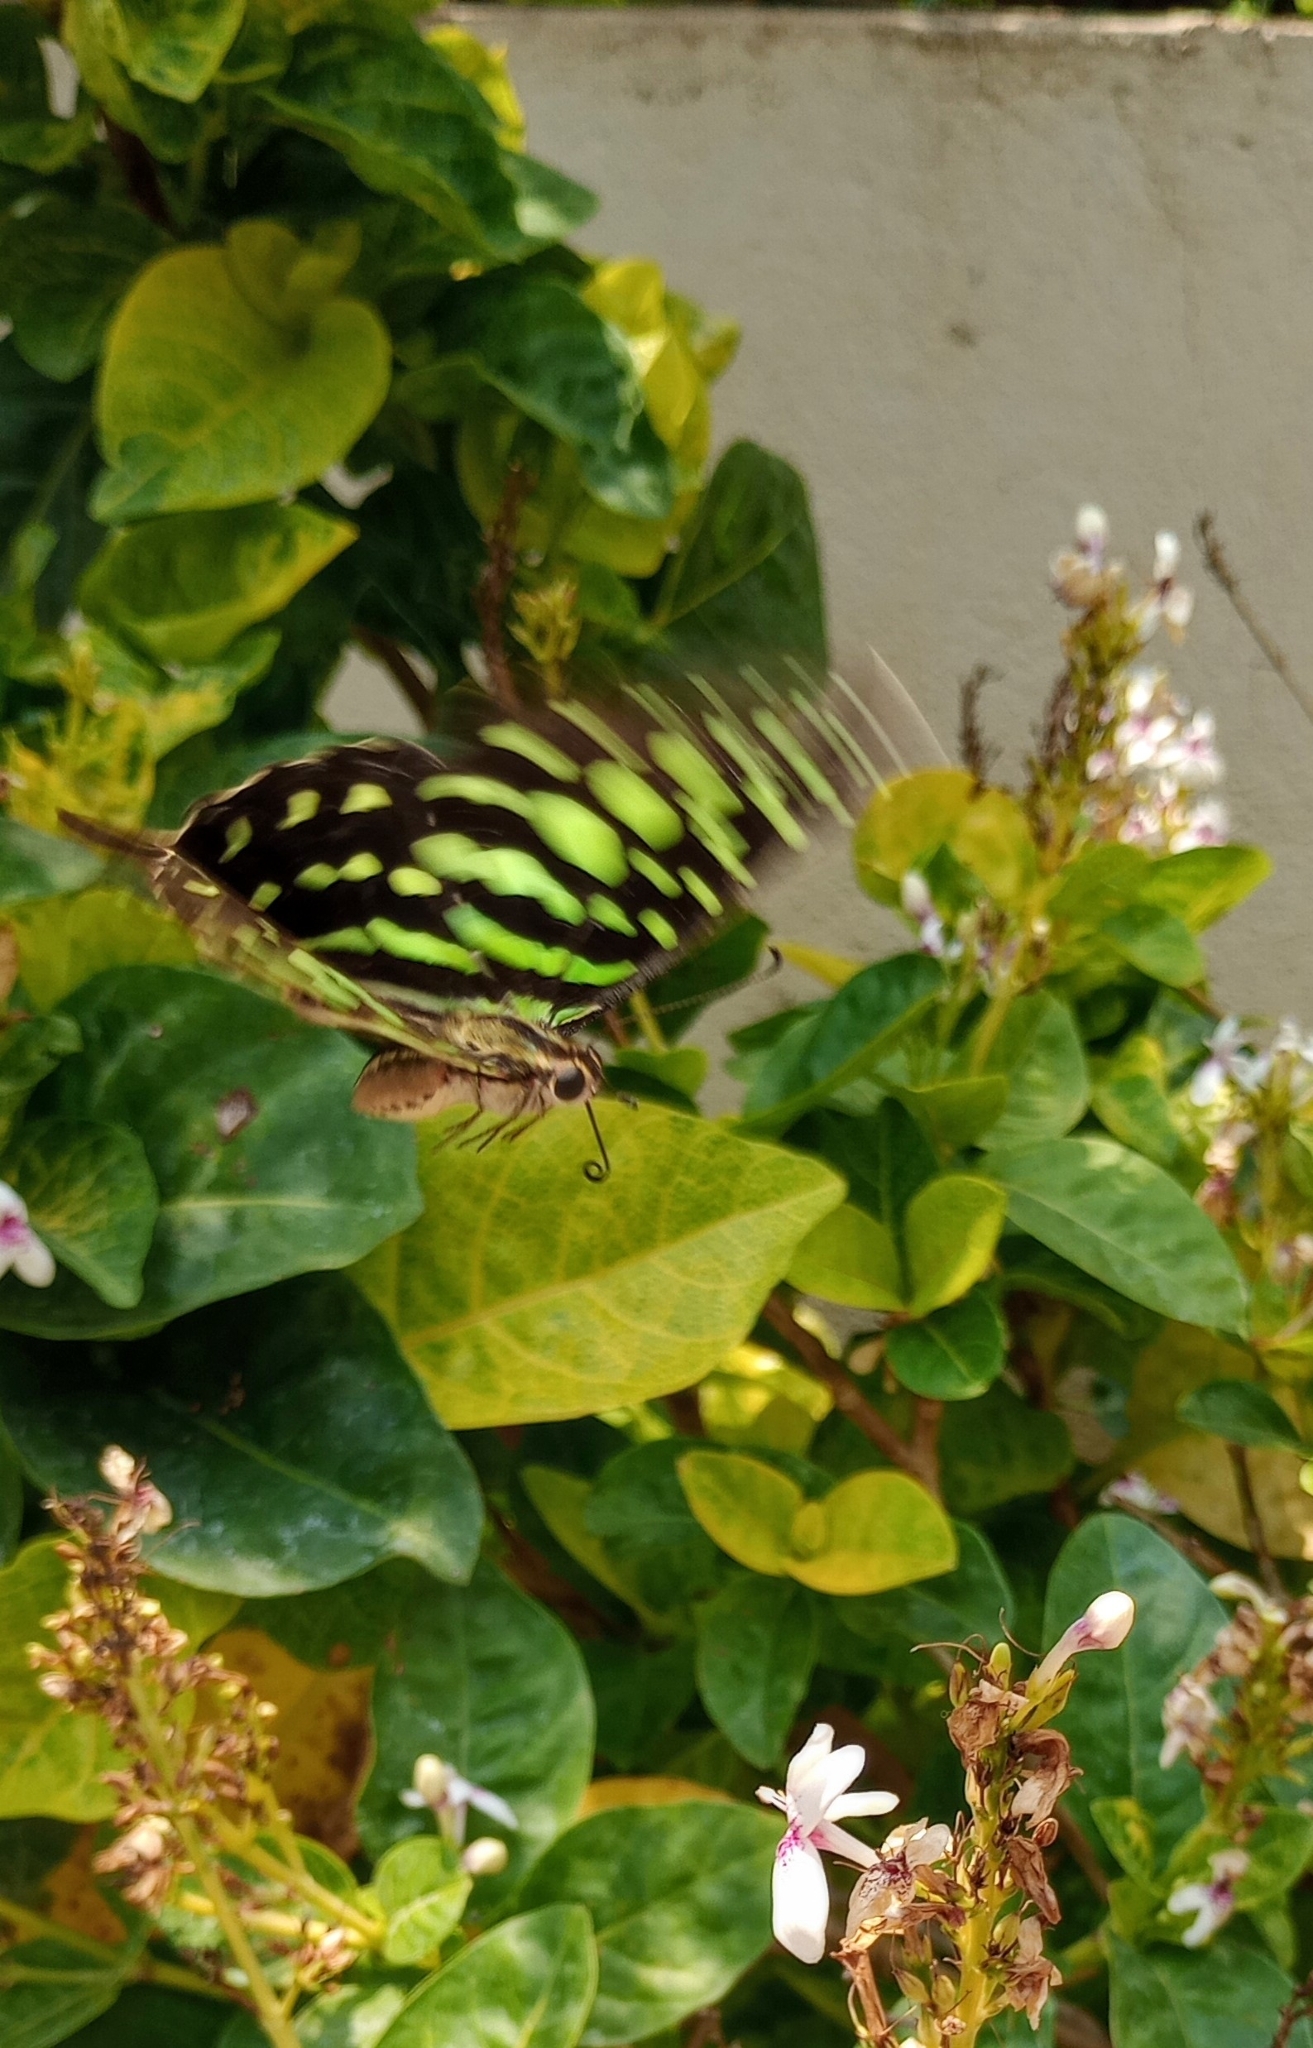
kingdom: Animalia
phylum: Arthropoda
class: Insecta
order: Lepidoptera
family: Papilionidae
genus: Graphium
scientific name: Graphium agamemnon
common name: Tailed jay
